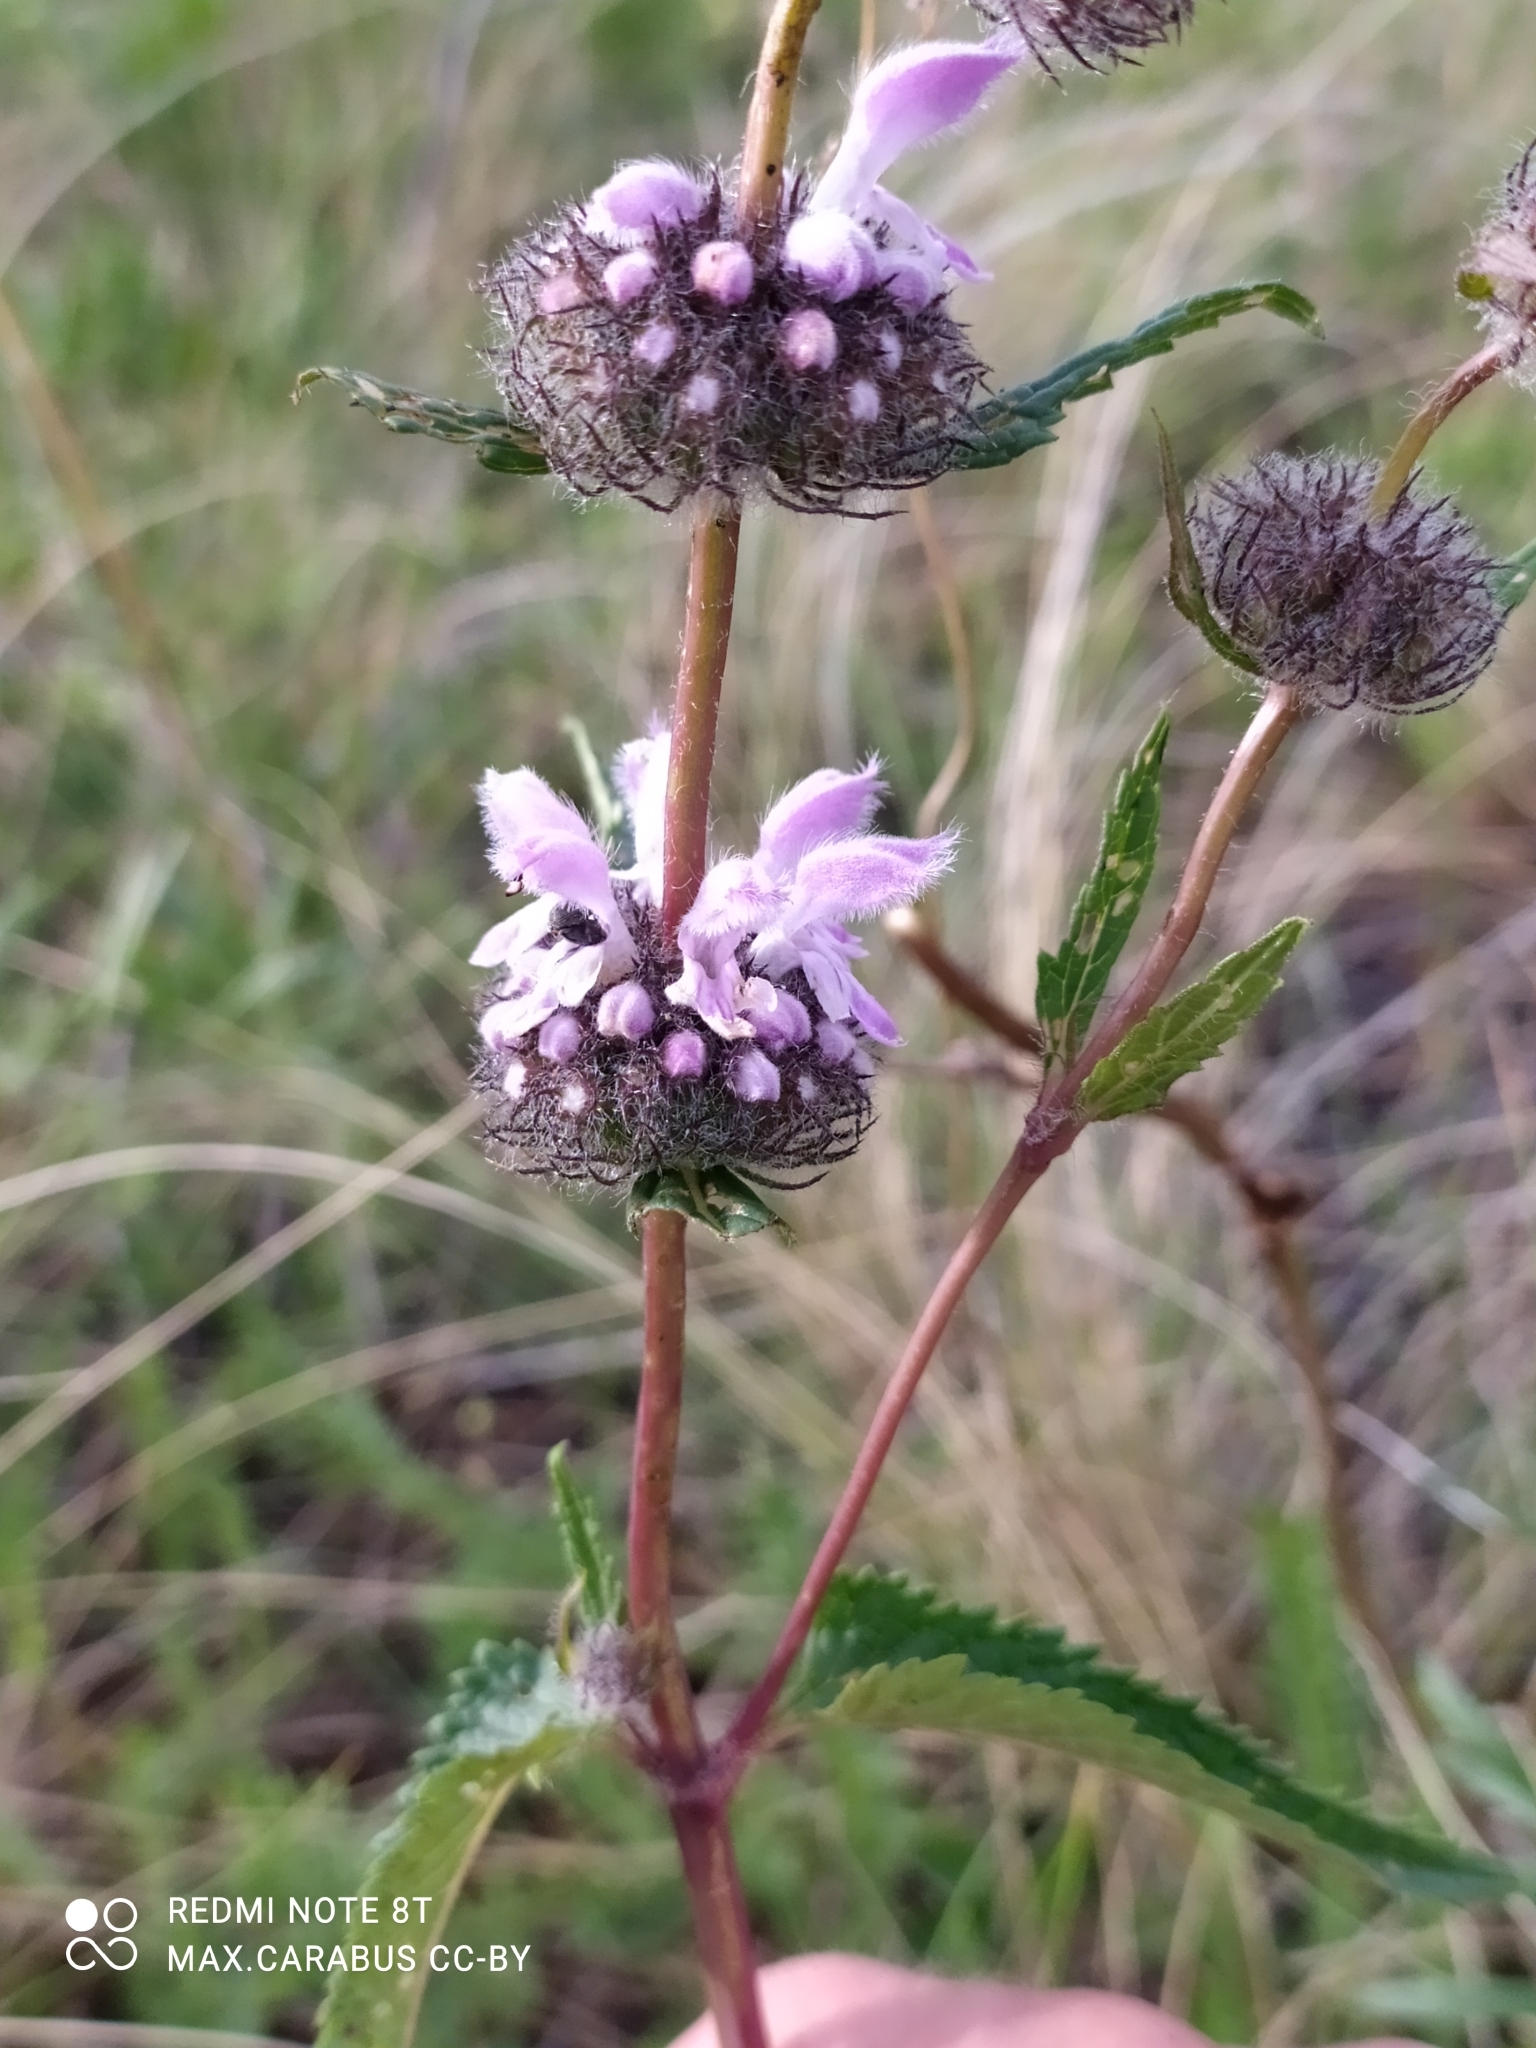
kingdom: Plantae
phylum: Tracheophyta
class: Magnoliopsida
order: Lamiales
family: Lamiaceae
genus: Phlomoides
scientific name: Phlomoides tuberosa
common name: Tuberous jerusalem sage
